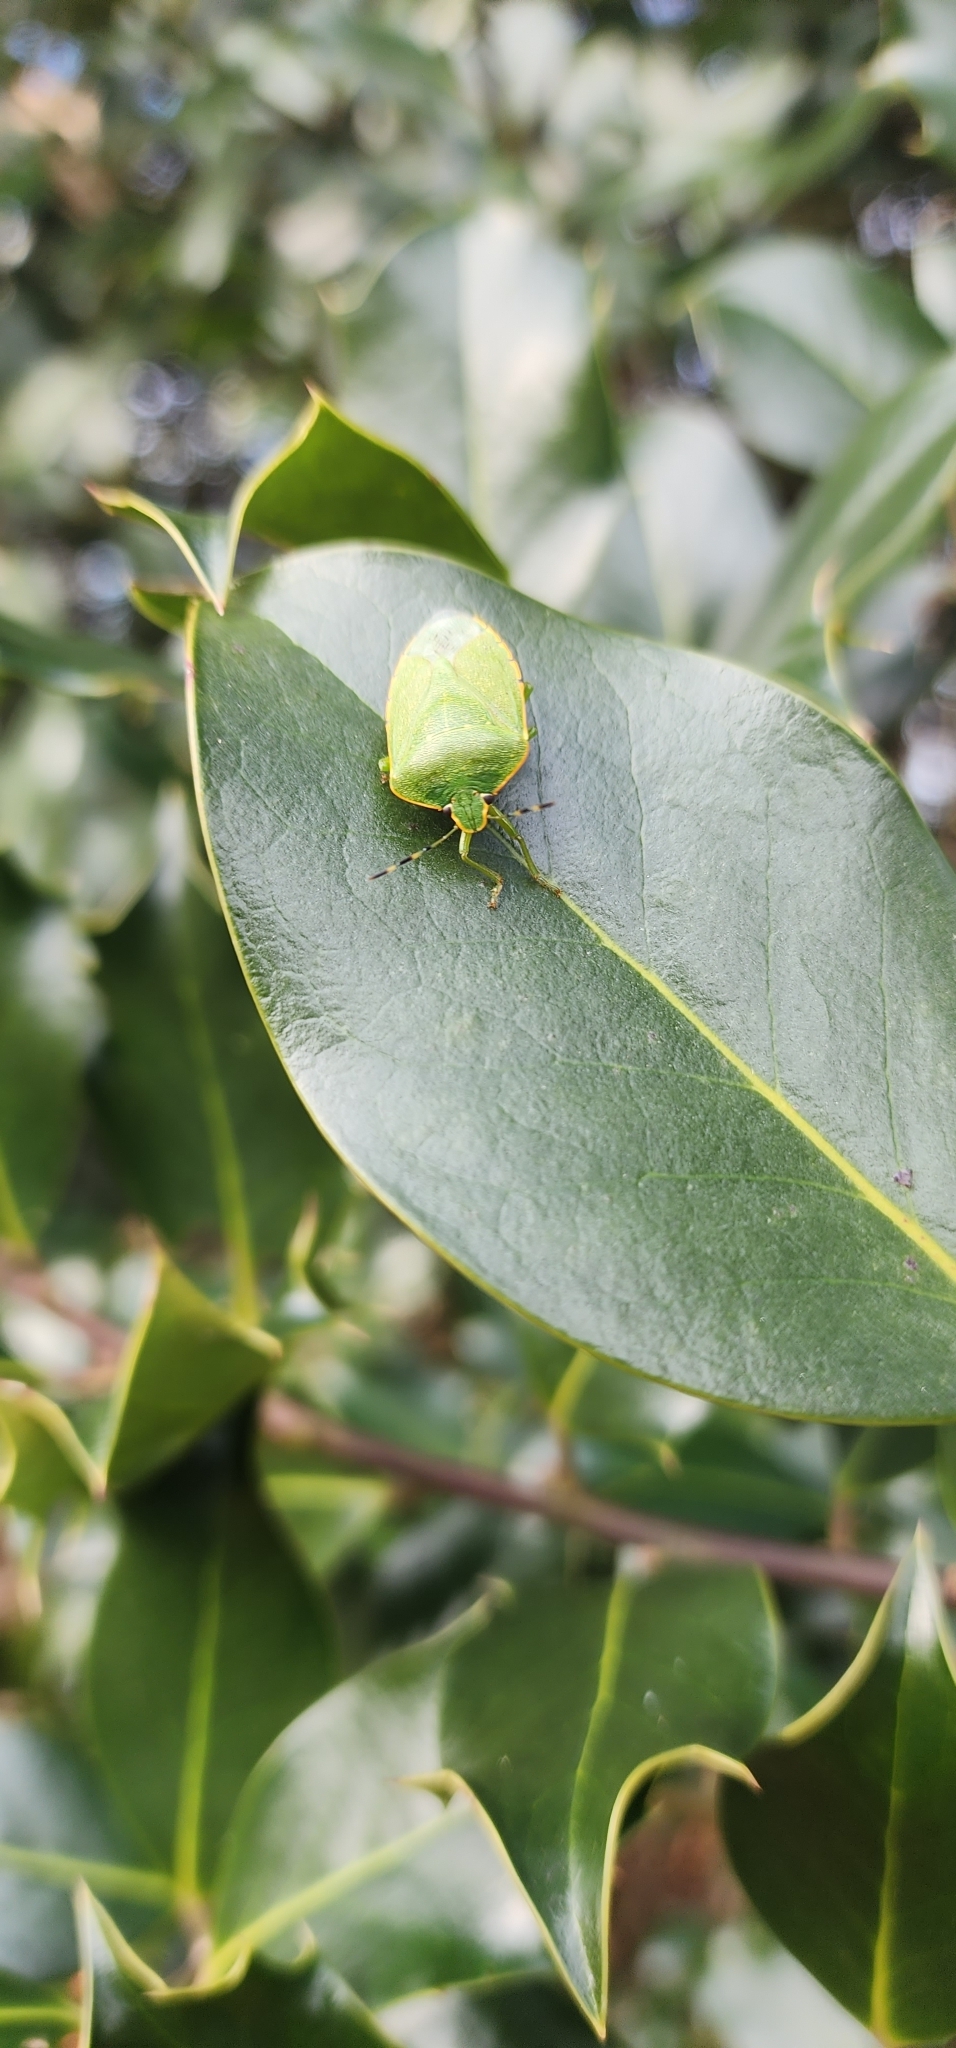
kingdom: Animalia
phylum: Arthropoda
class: Insecta
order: Hemiptera
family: Pentatomidae
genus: Chinavia
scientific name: Chinavia hilaris
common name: Green stink bug
